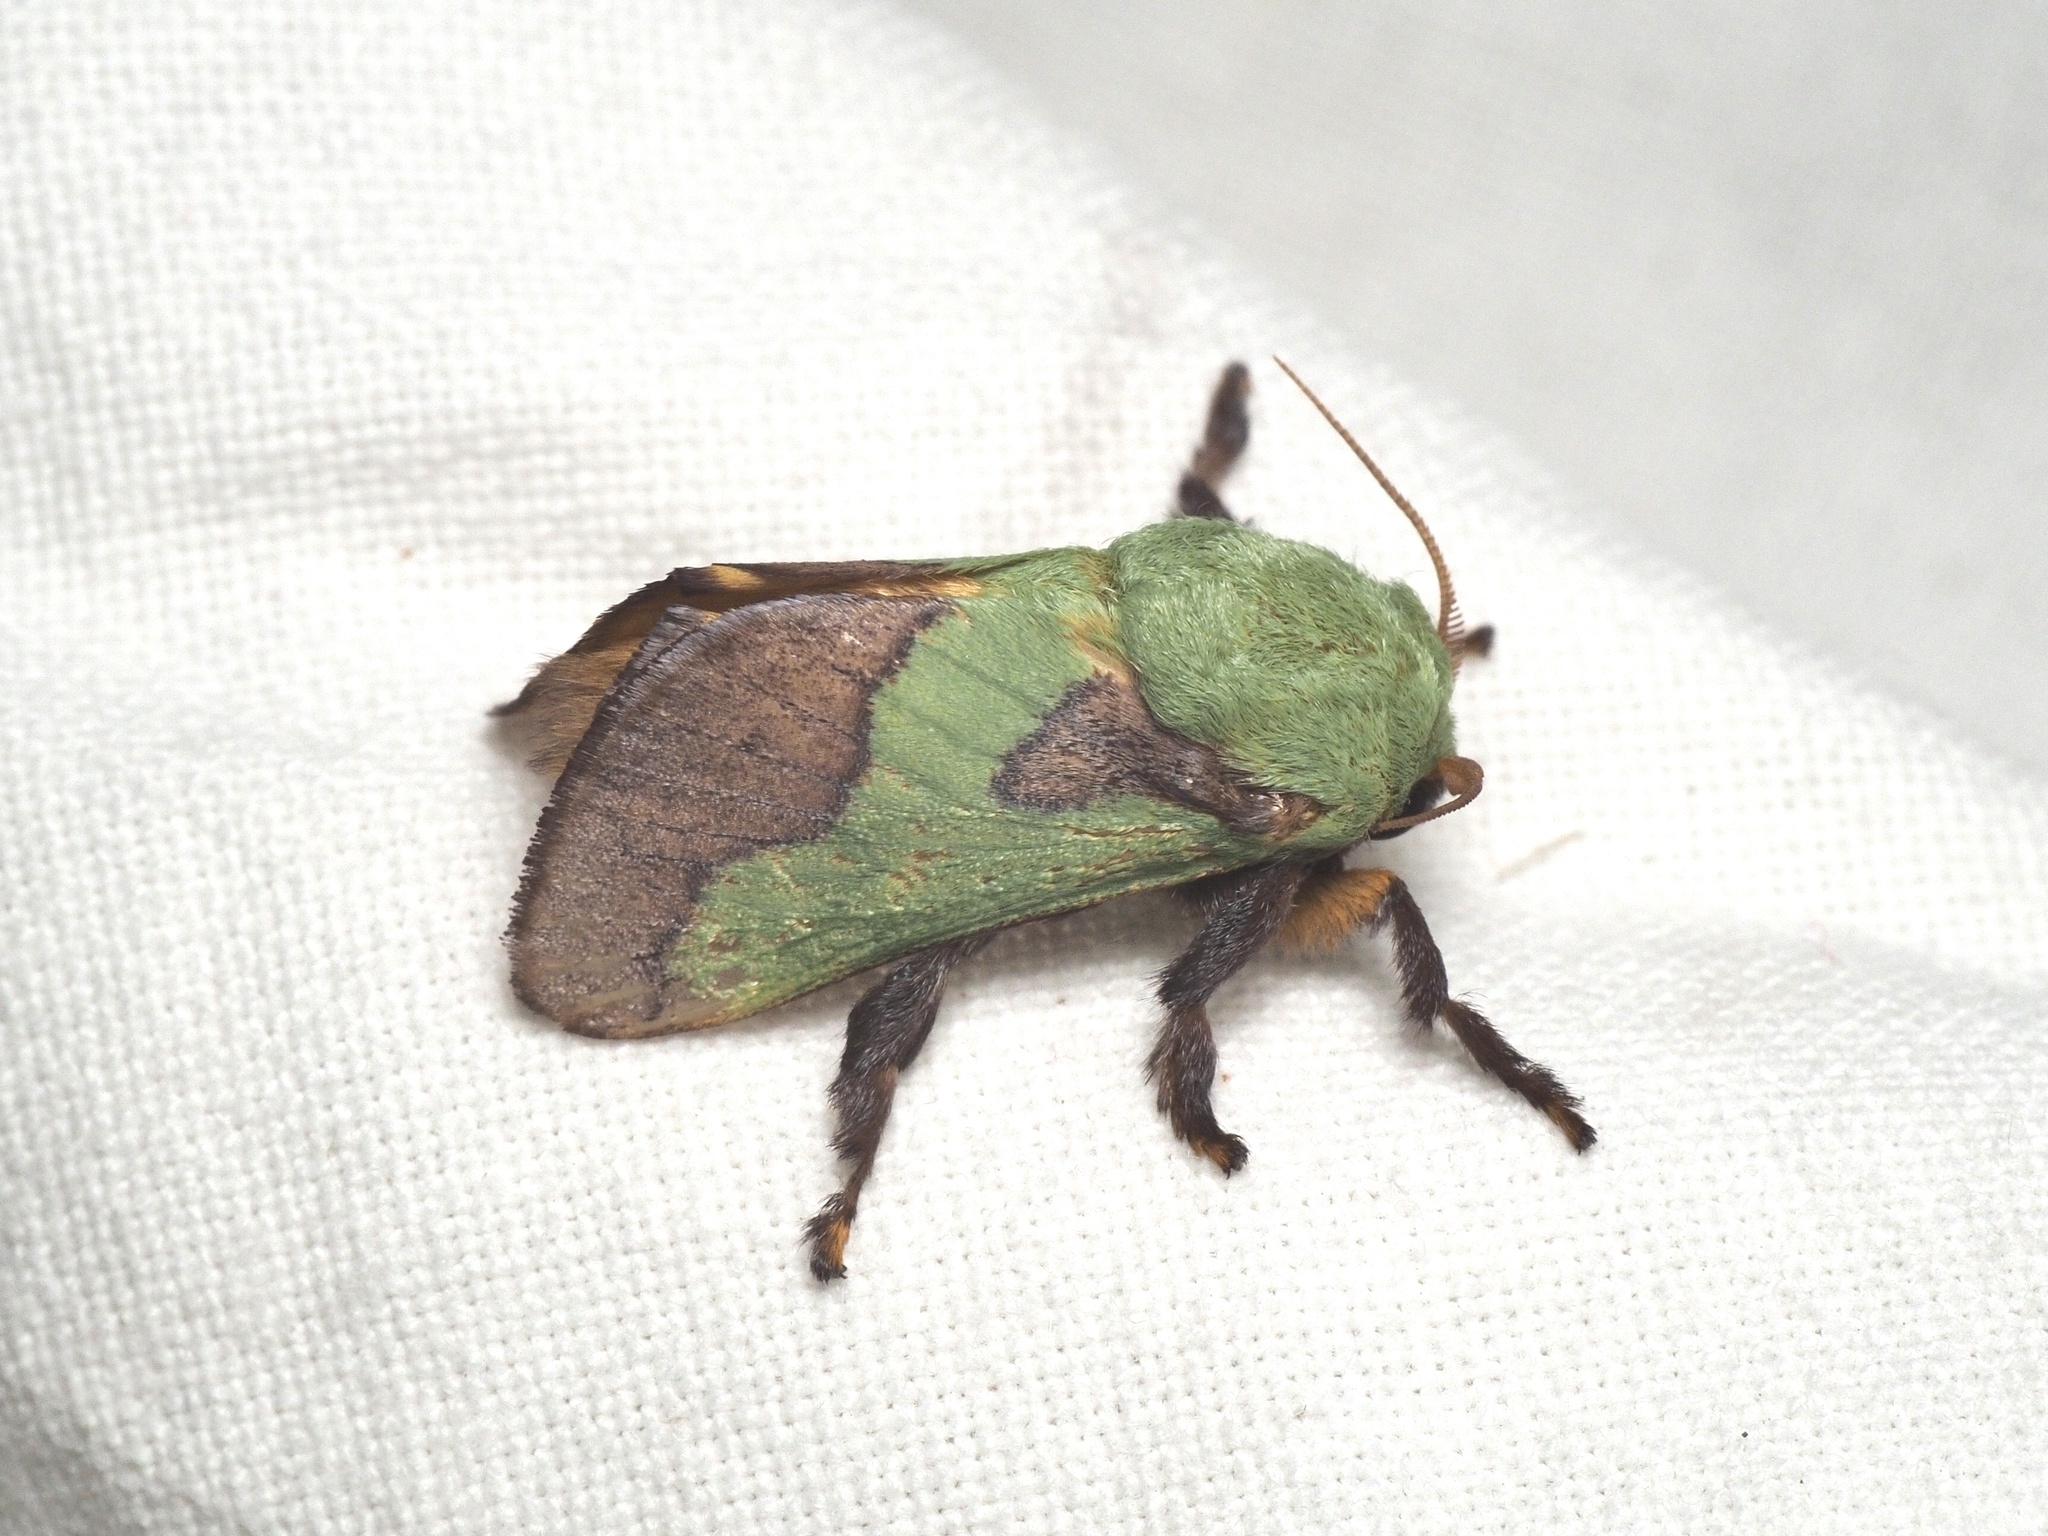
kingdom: Animalia
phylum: Arthropoda
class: Insecta
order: Lepidoptera
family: Limacodidae
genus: Parasa
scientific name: Parasa latistriga
